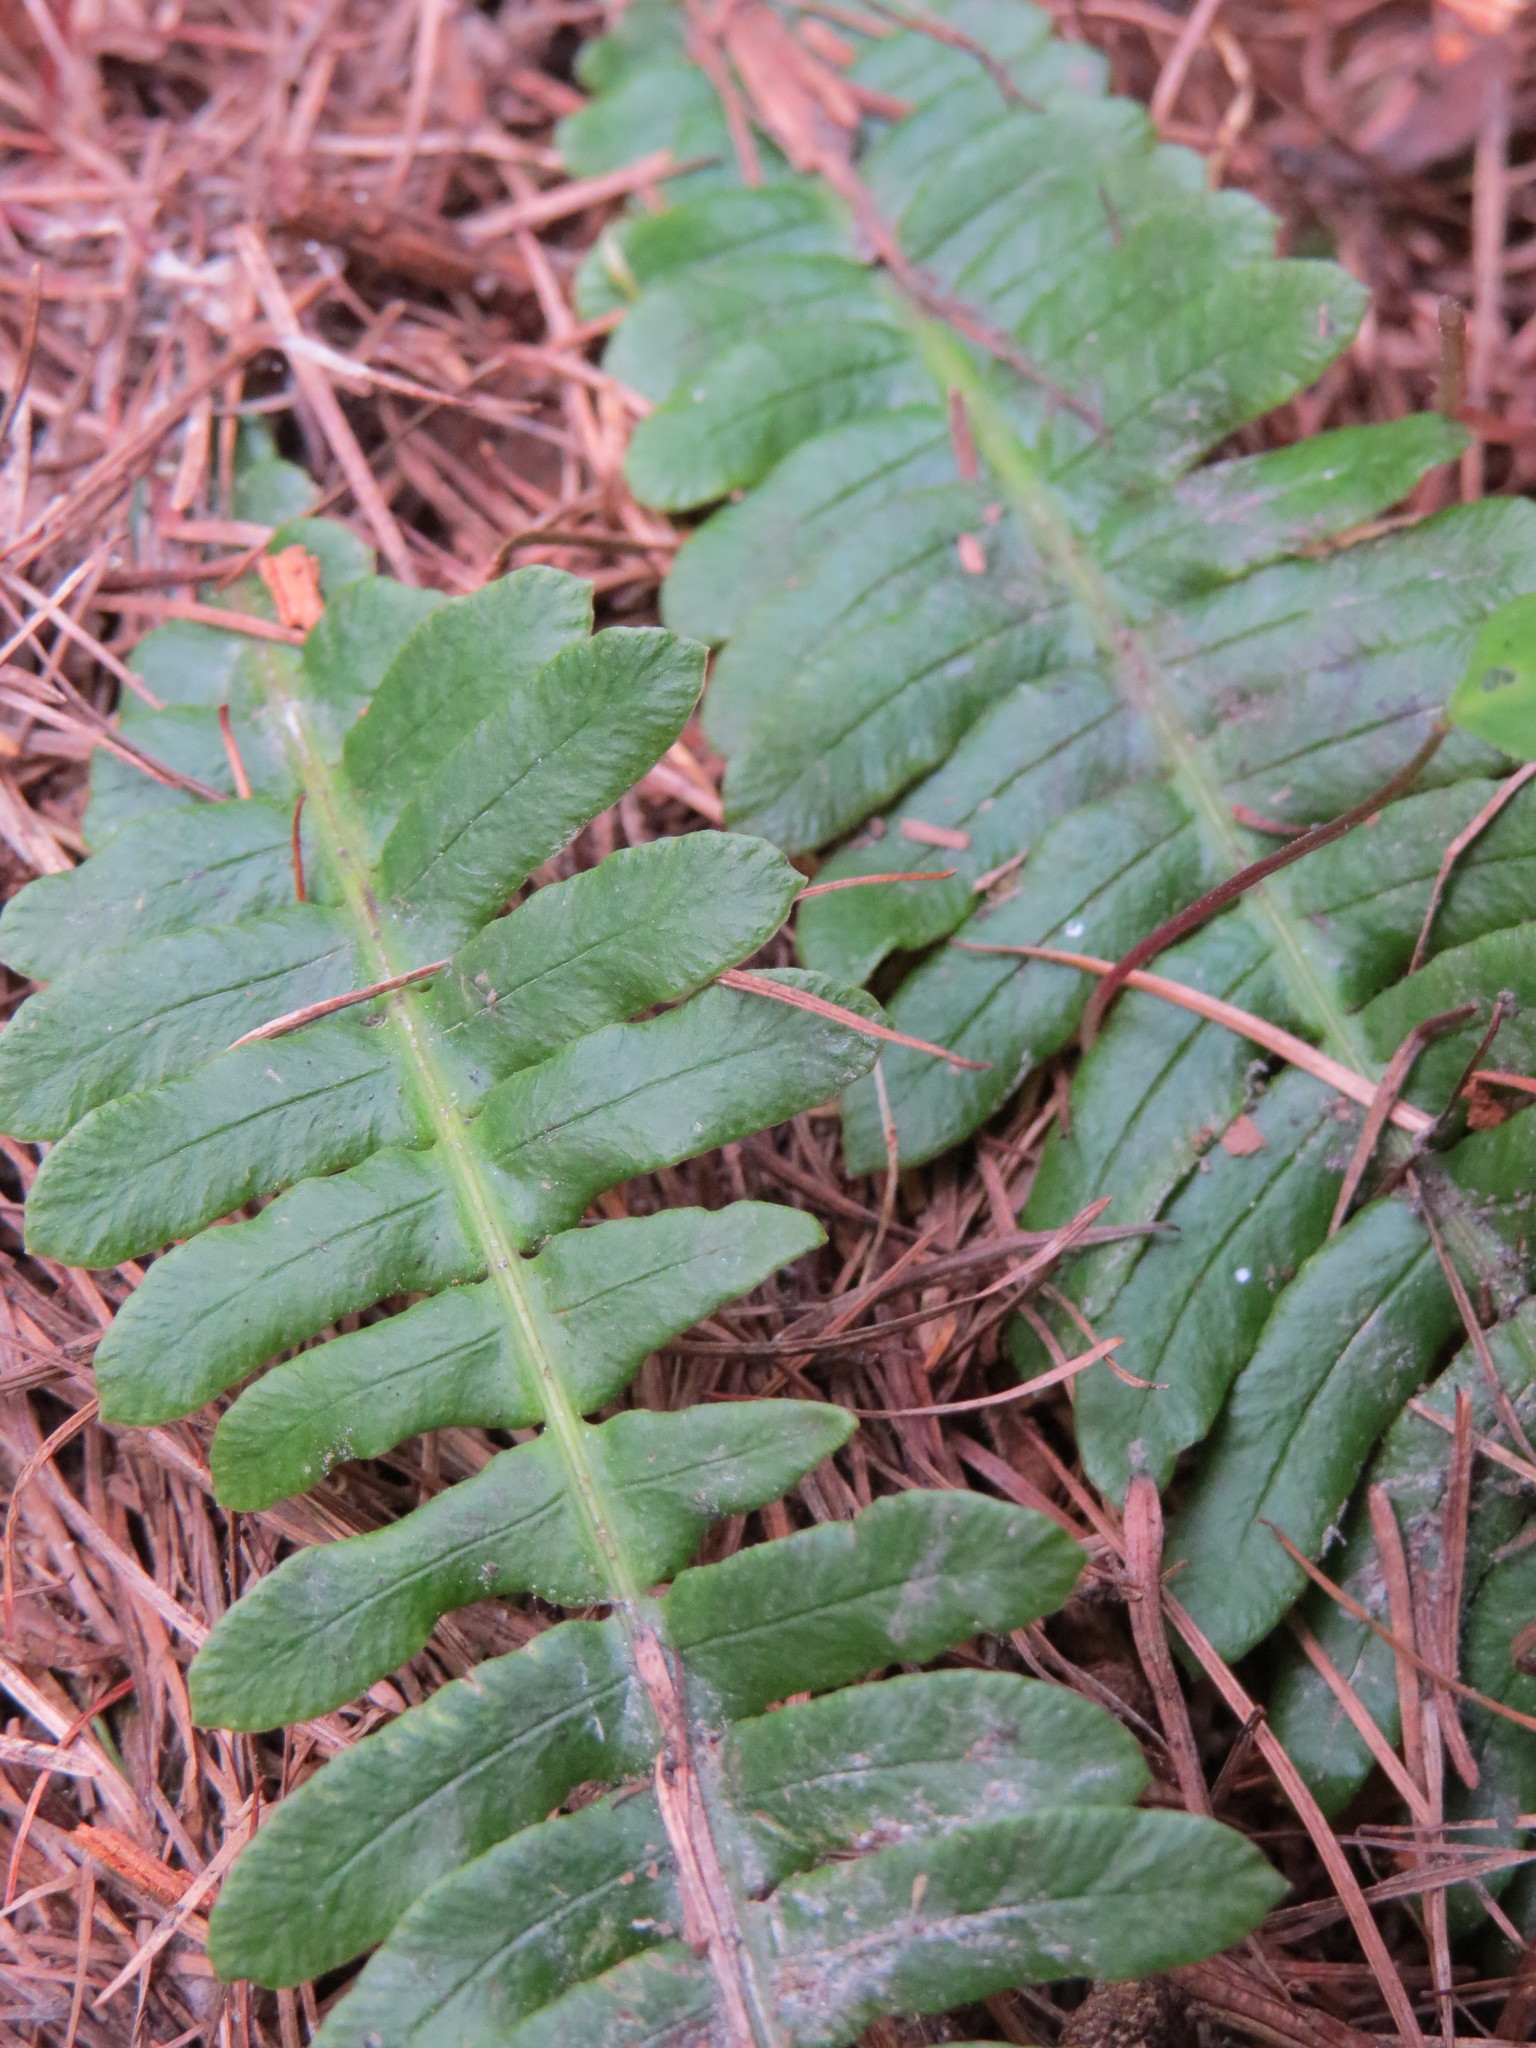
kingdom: Plantae
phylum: Tracheophyta
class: Polypodiopsida
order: Polypodiales
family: Blechnaceae
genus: Struthiopteris
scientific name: Struthiopteris spicant
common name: Deer fern
